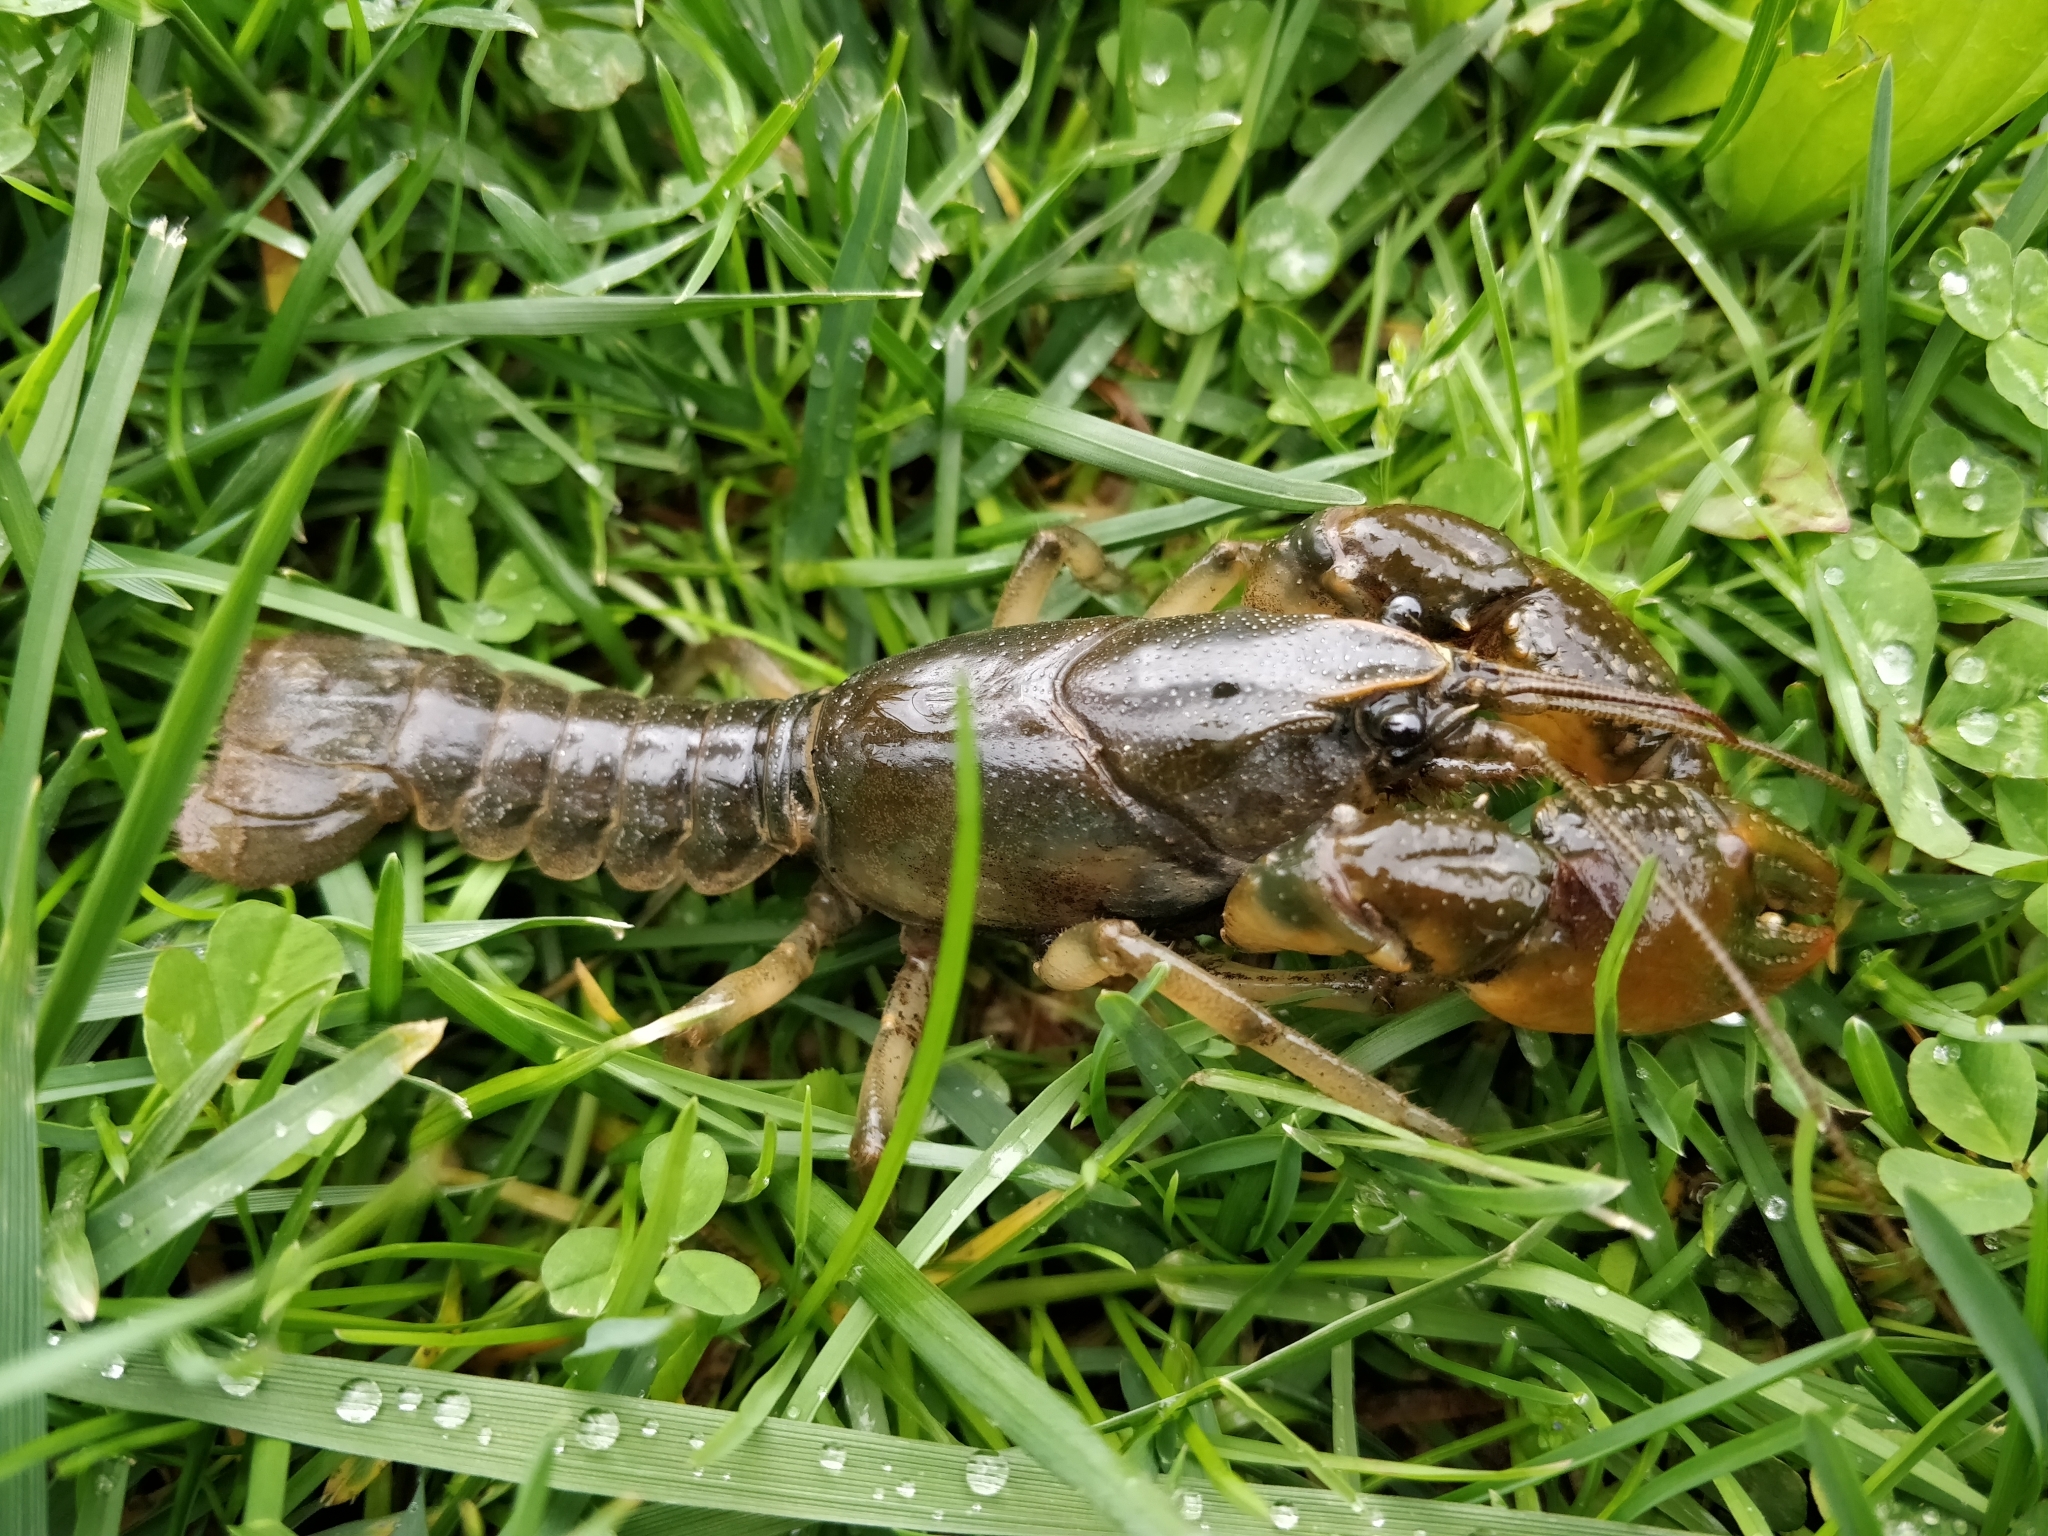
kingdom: Animalia
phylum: Arthropoda
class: Malacostraca
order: Decapoda
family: Cambaridae
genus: Lacunicambarus
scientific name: Lacunicambarus thomai
